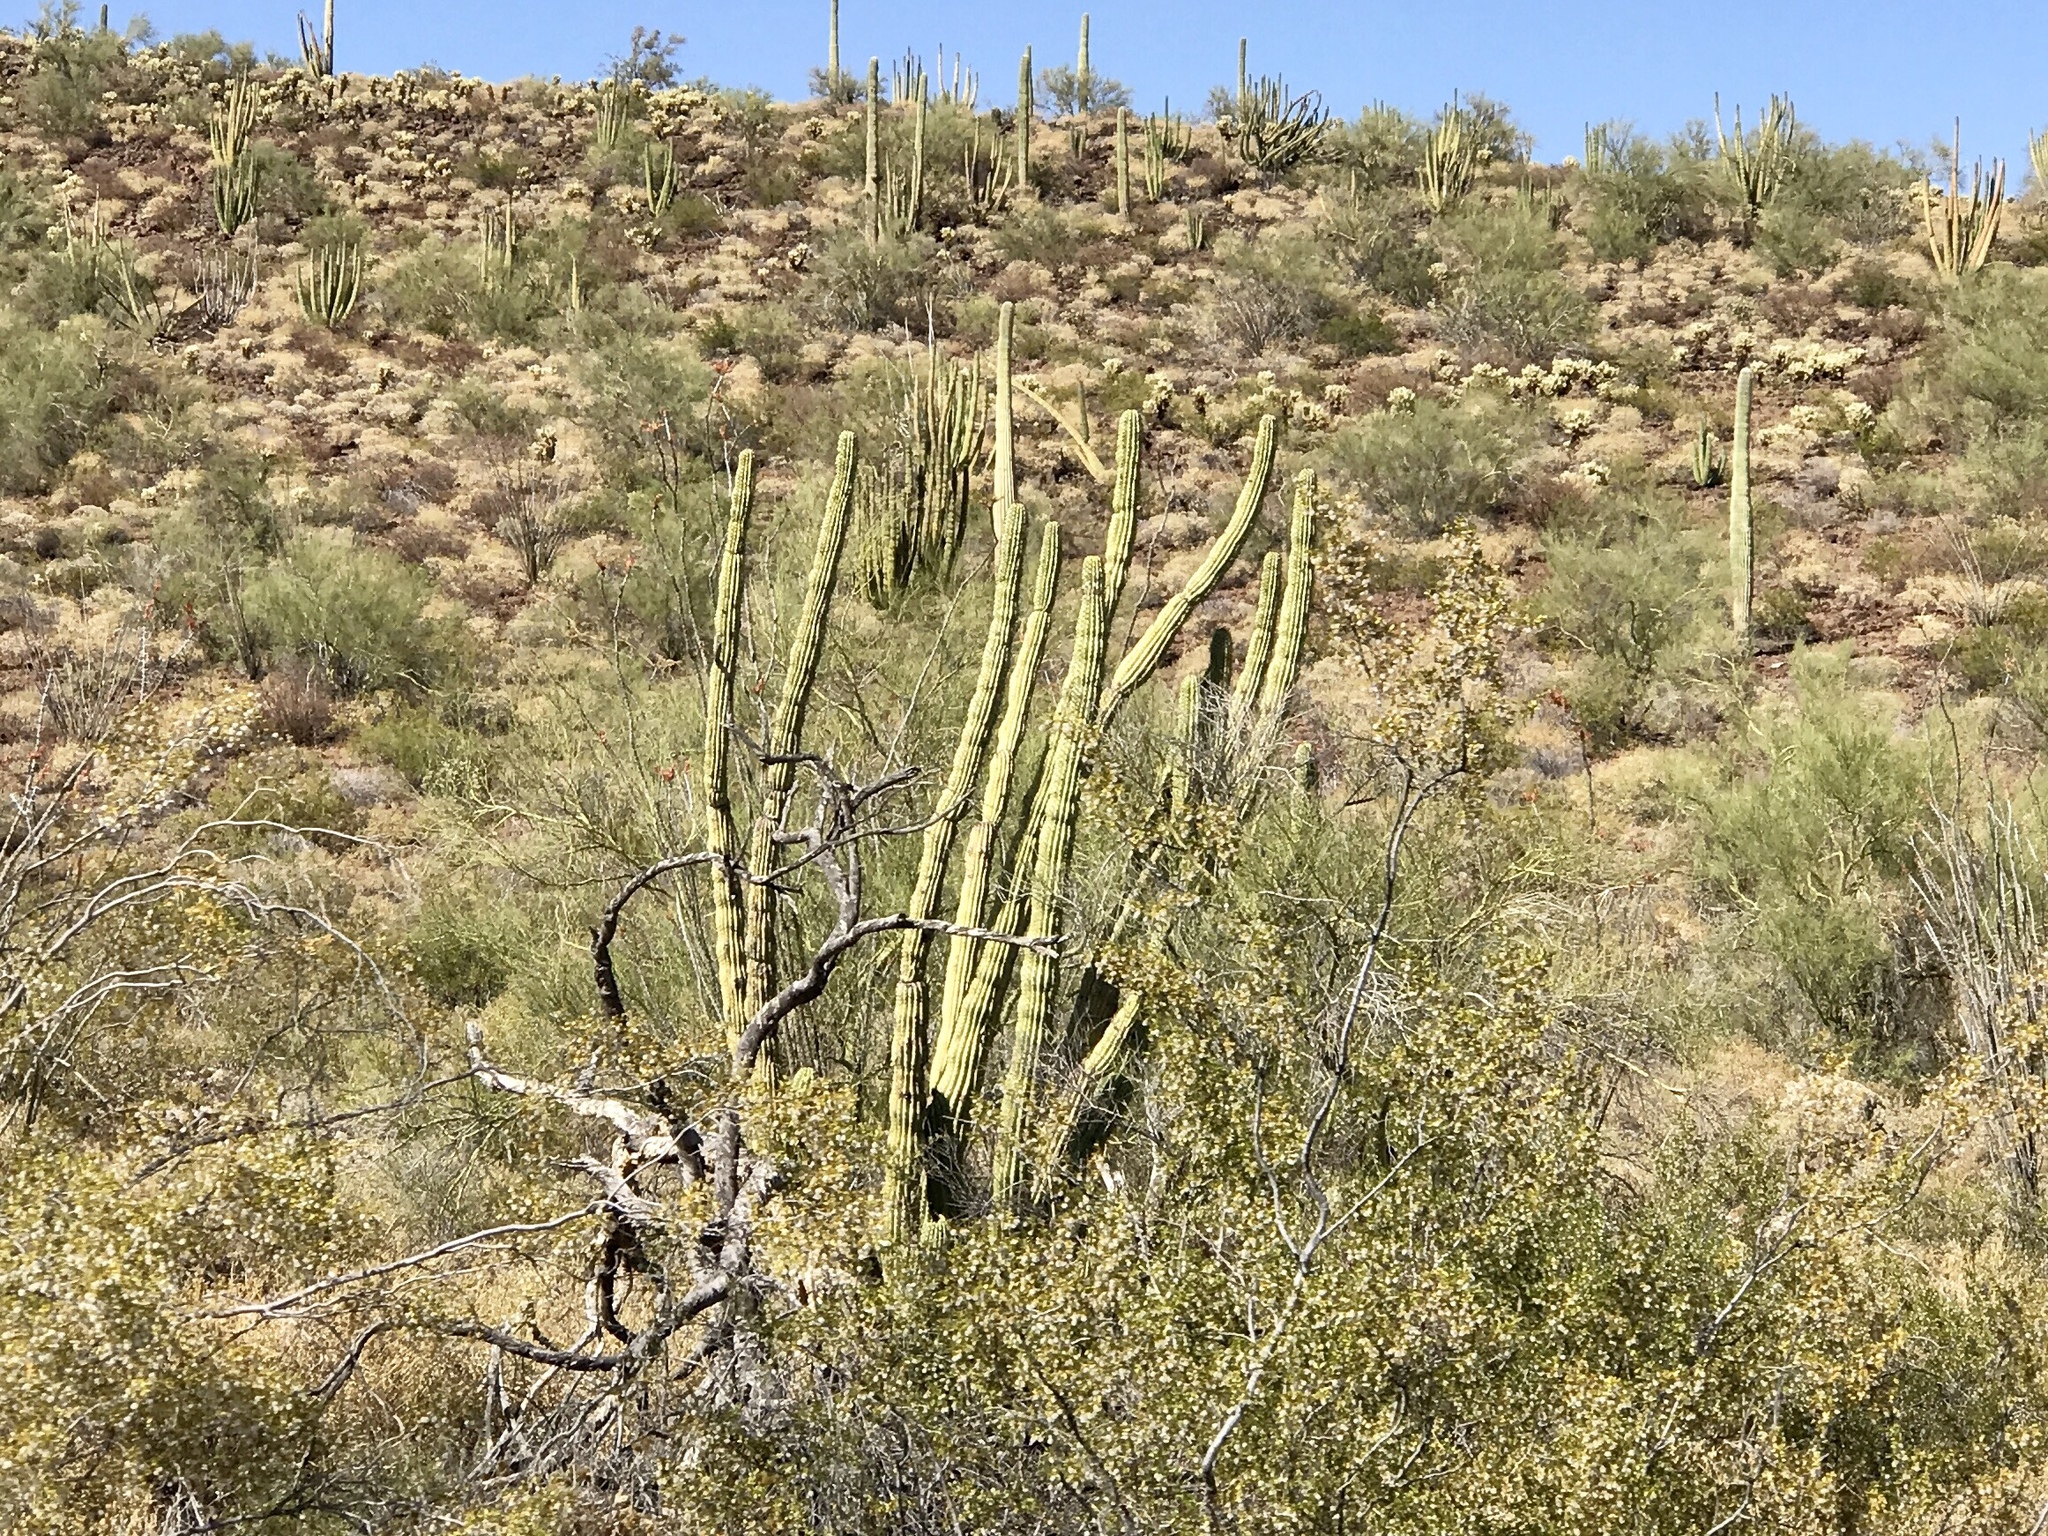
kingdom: Plantae
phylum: Tracheophyta
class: Magnoliopsida
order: Caryophyllales
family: Cactaceae
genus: Stenocereus
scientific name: Stenocereus thurberi
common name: Organ pipe cactus
